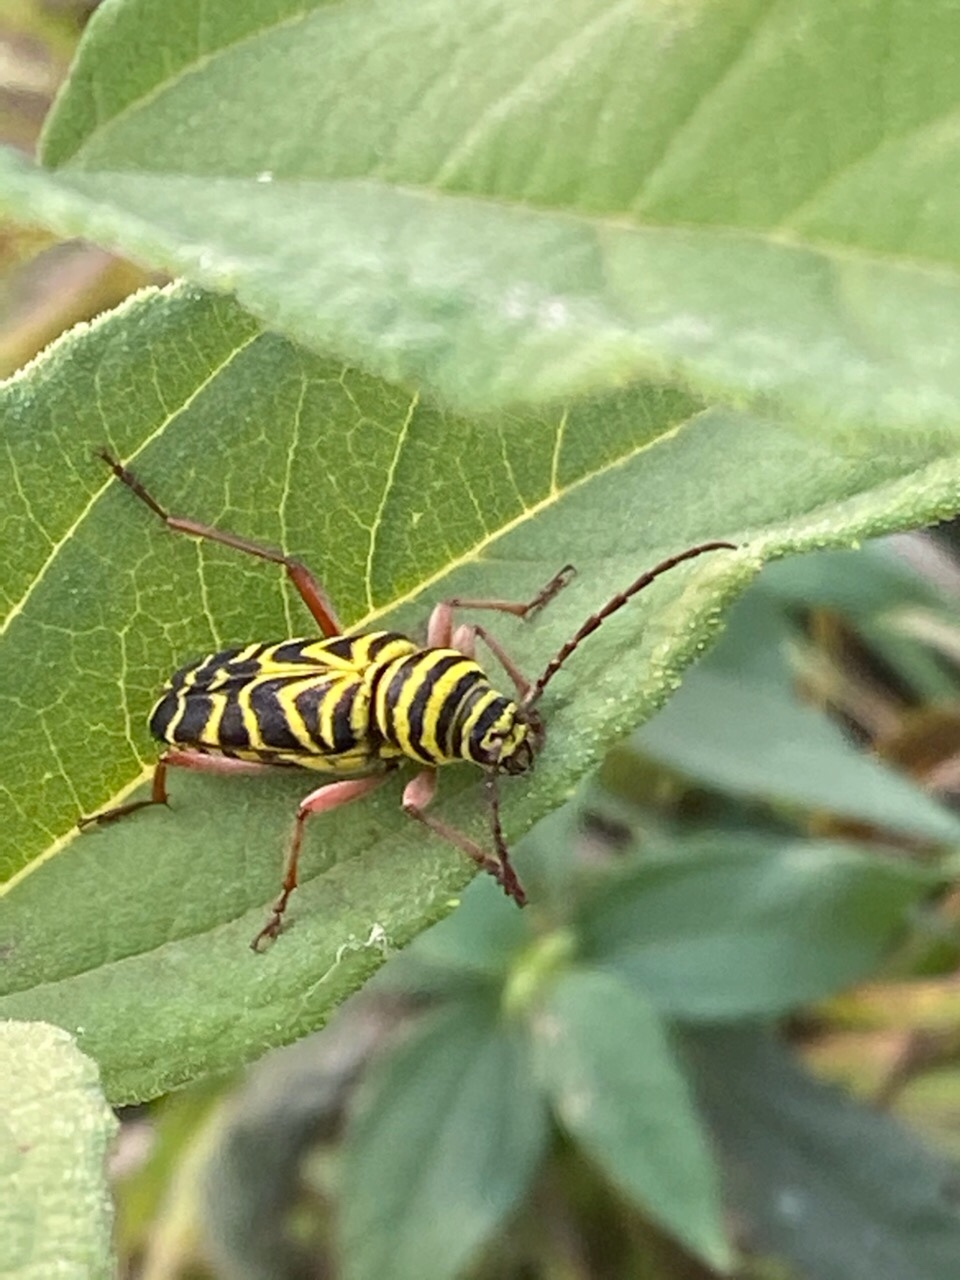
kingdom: Animalia
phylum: Arthropoda
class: Insecta
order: Coleoptera
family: Cerambycidae
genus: Megacyllene
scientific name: Megacyllene robiniae
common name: Locust borer
